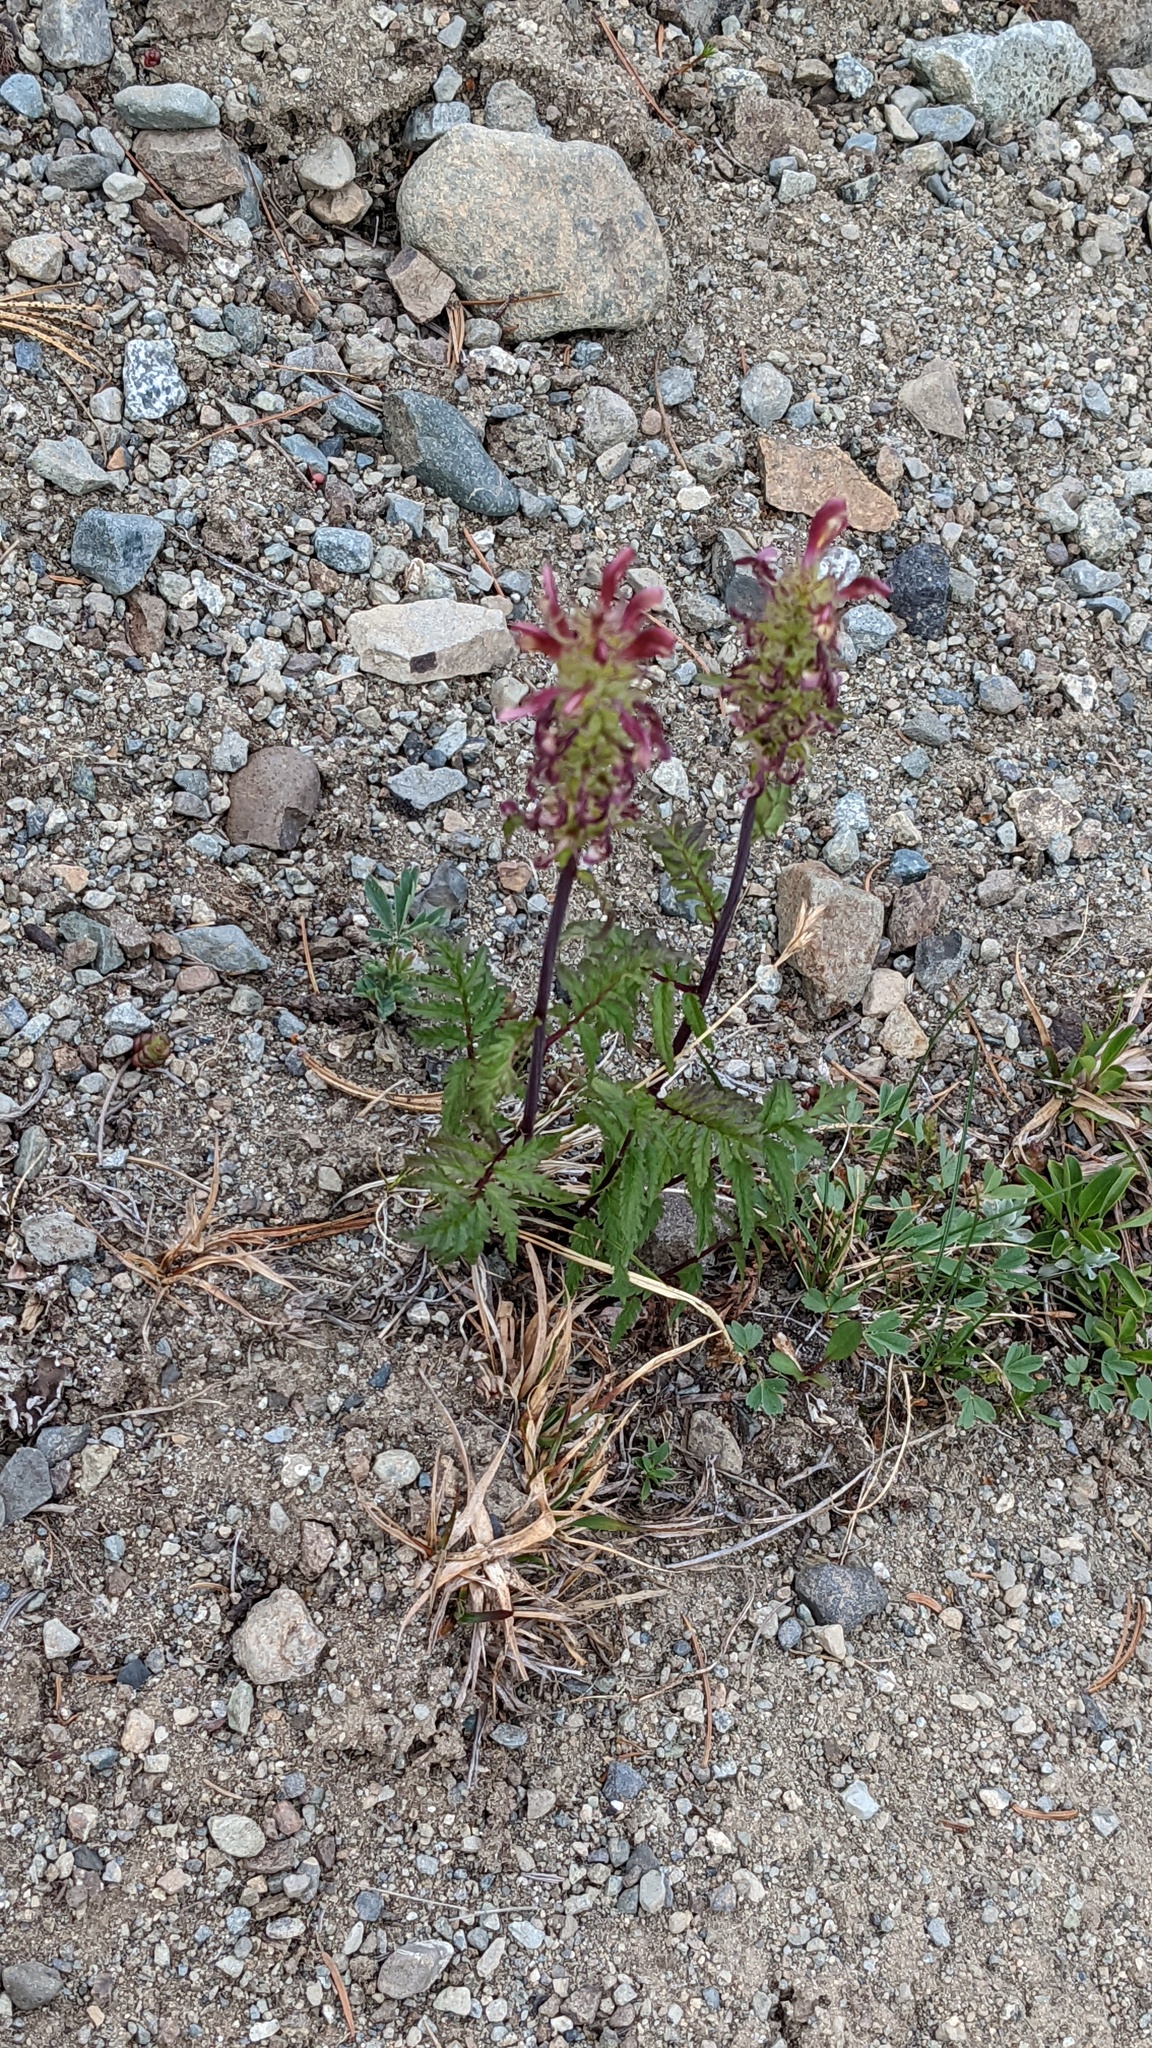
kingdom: Plantae
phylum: Tracheophyta
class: Magnoliopsida
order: Lamiales
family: Orobanchaceae
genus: Pedicularis
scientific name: Pedicularis bracteosa
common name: Bracted lousewort
